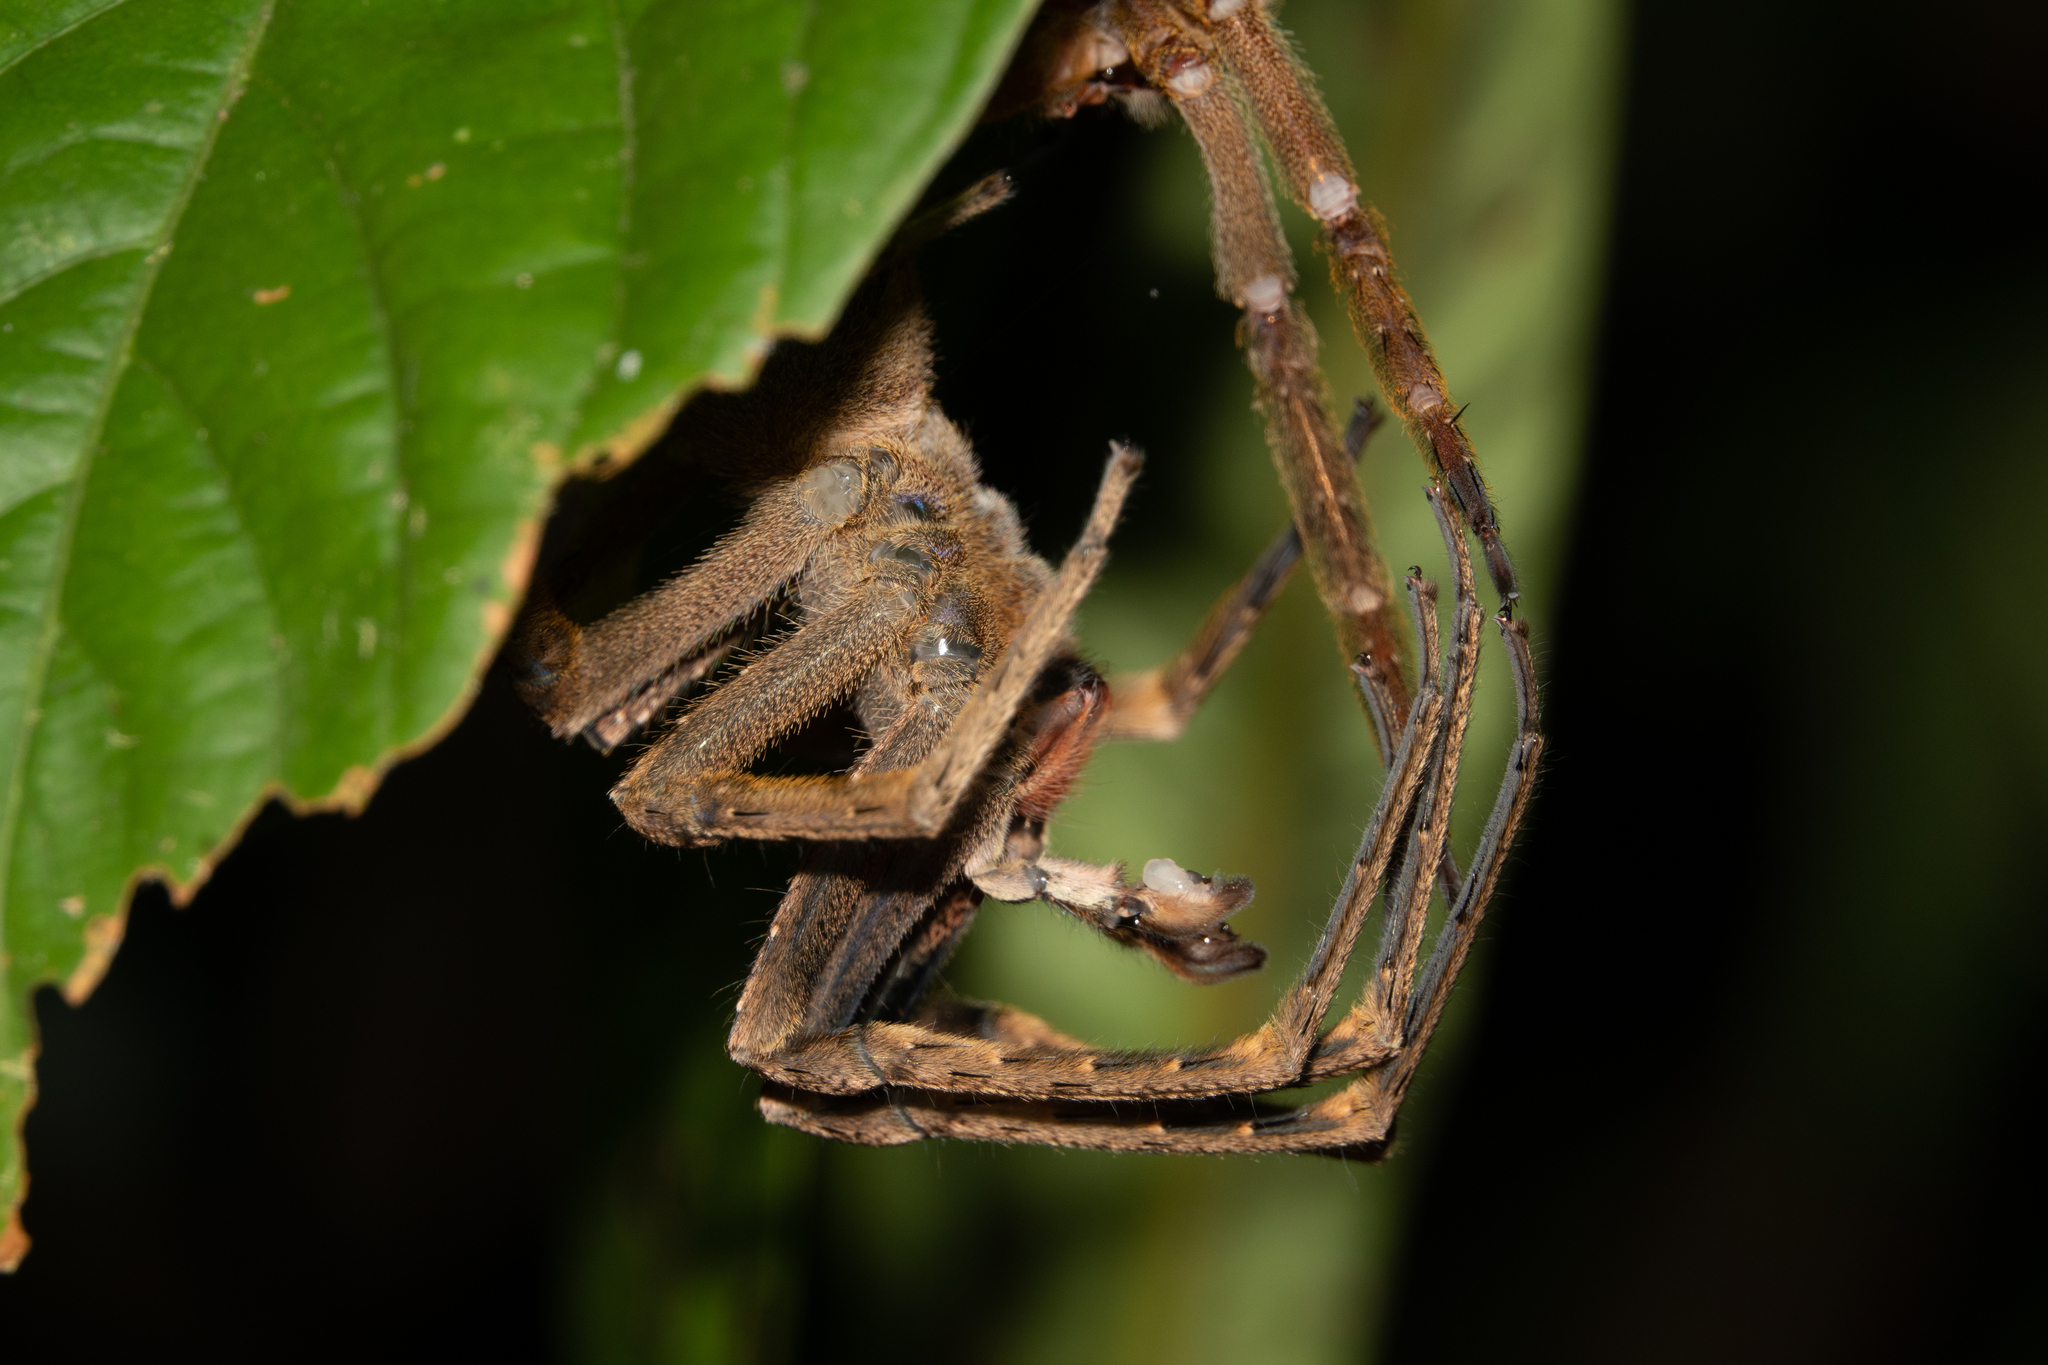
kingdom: Animalia
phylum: Arthropoda
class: Arachnida
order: Araneae
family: Ctenidae
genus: Phoneutria
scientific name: Phoneutria fera
